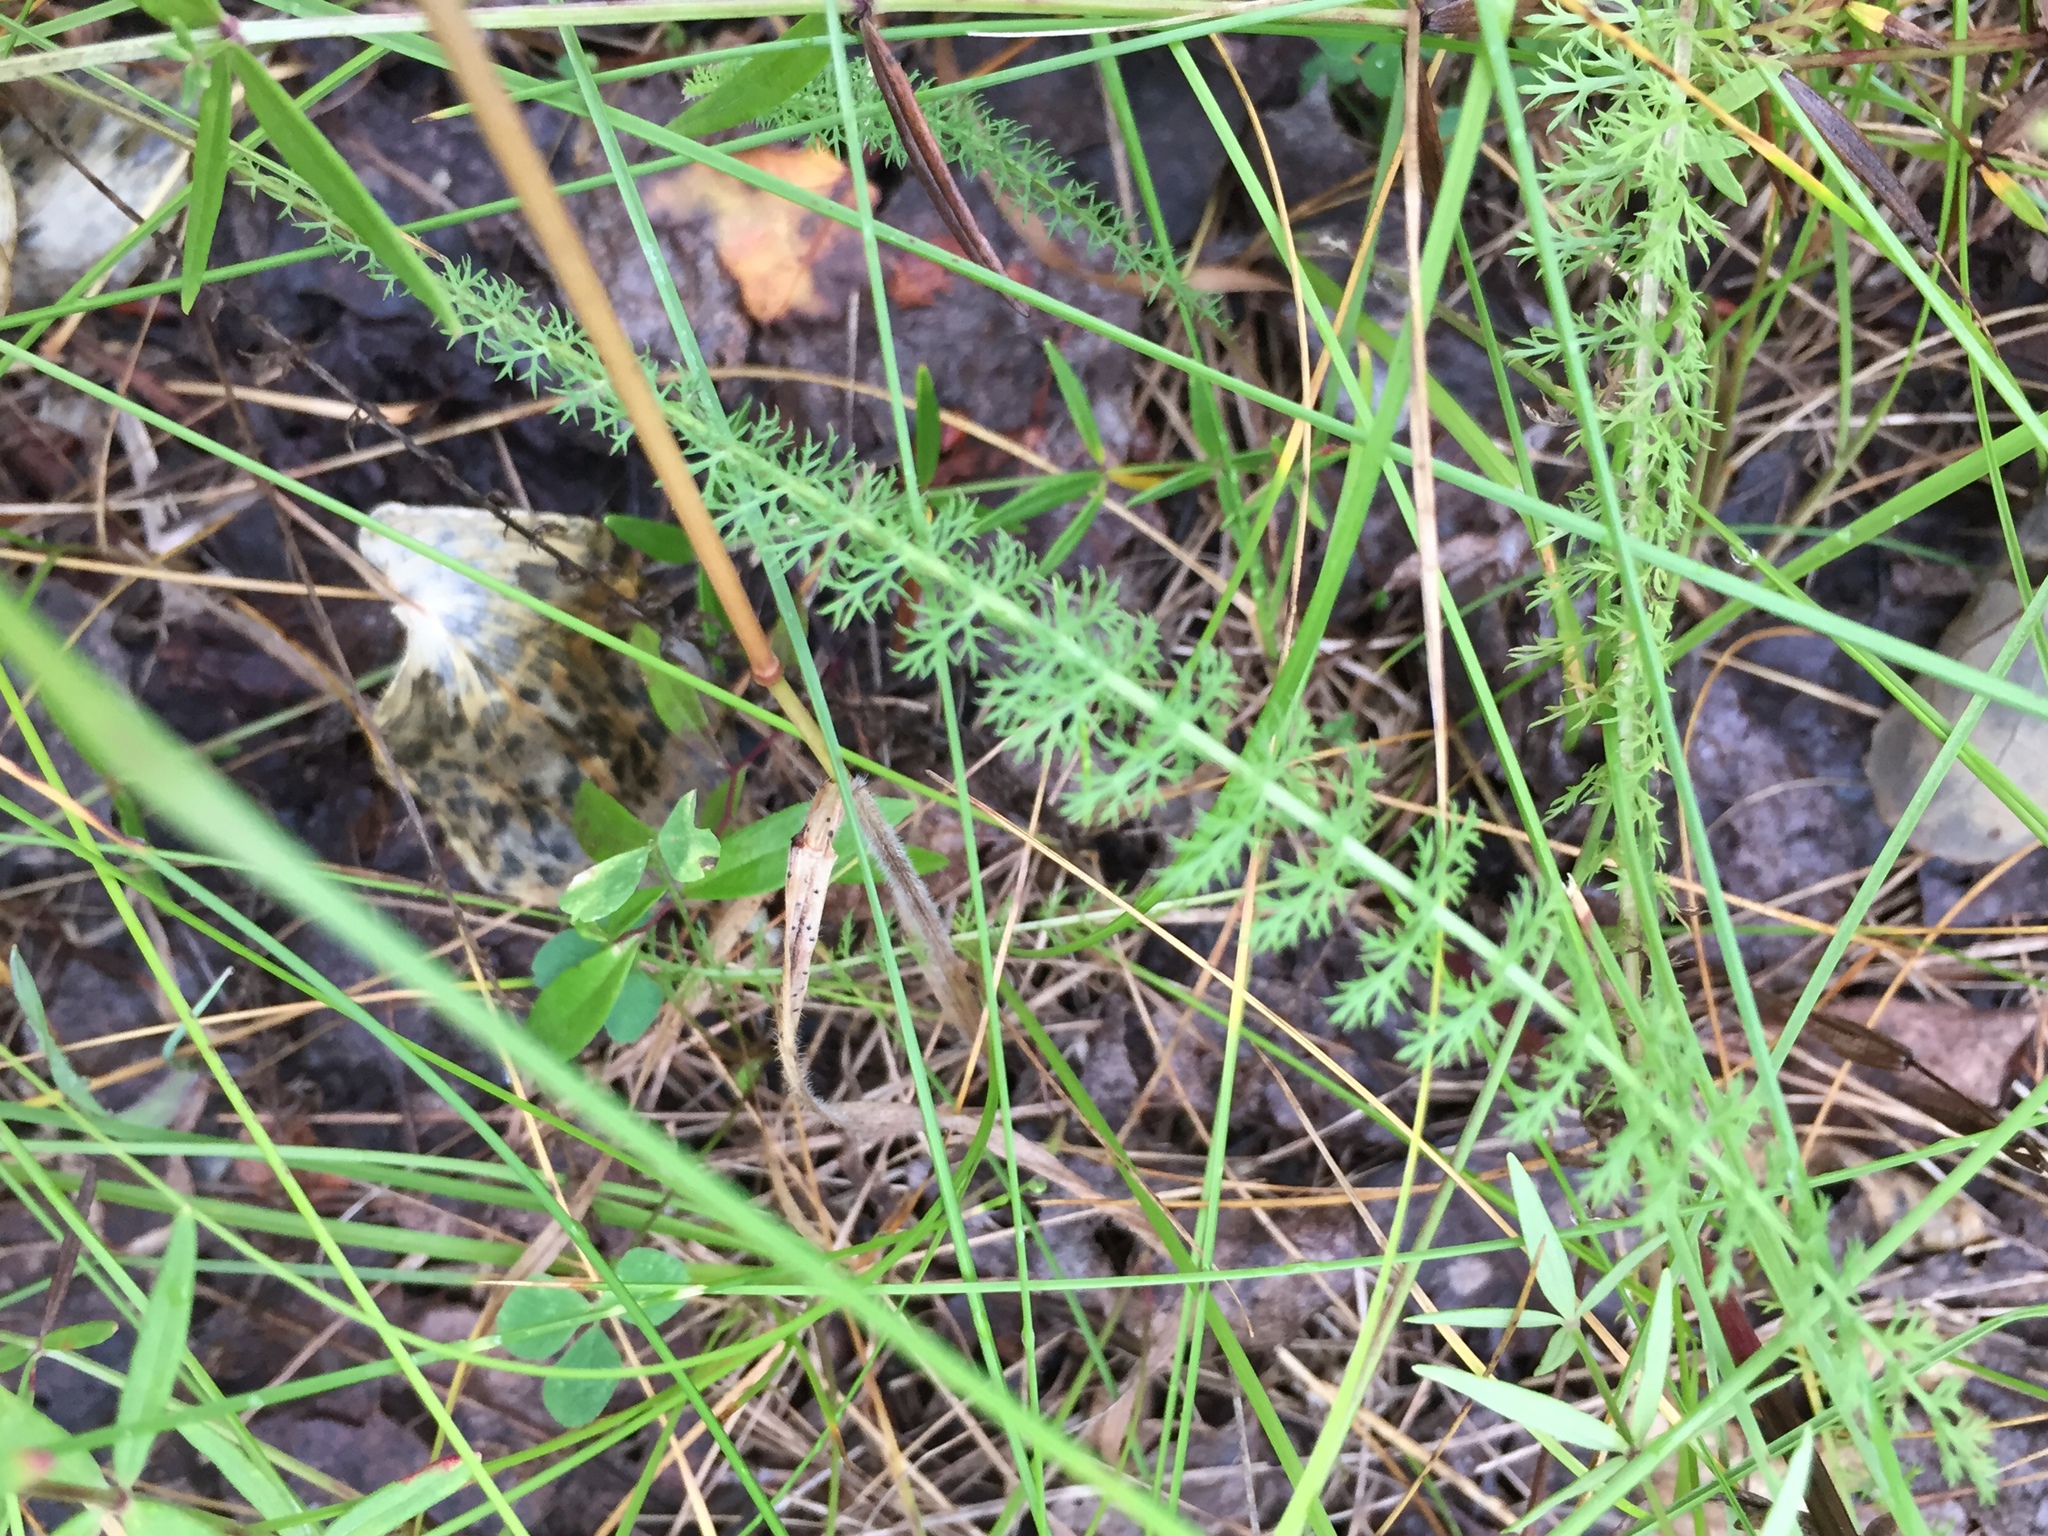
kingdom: Plantae
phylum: Tracheophyta
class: Magnoliopsida
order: Asterales
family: Asteraceae
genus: Achillea
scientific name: Achillea millefolium
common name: Yarrow
